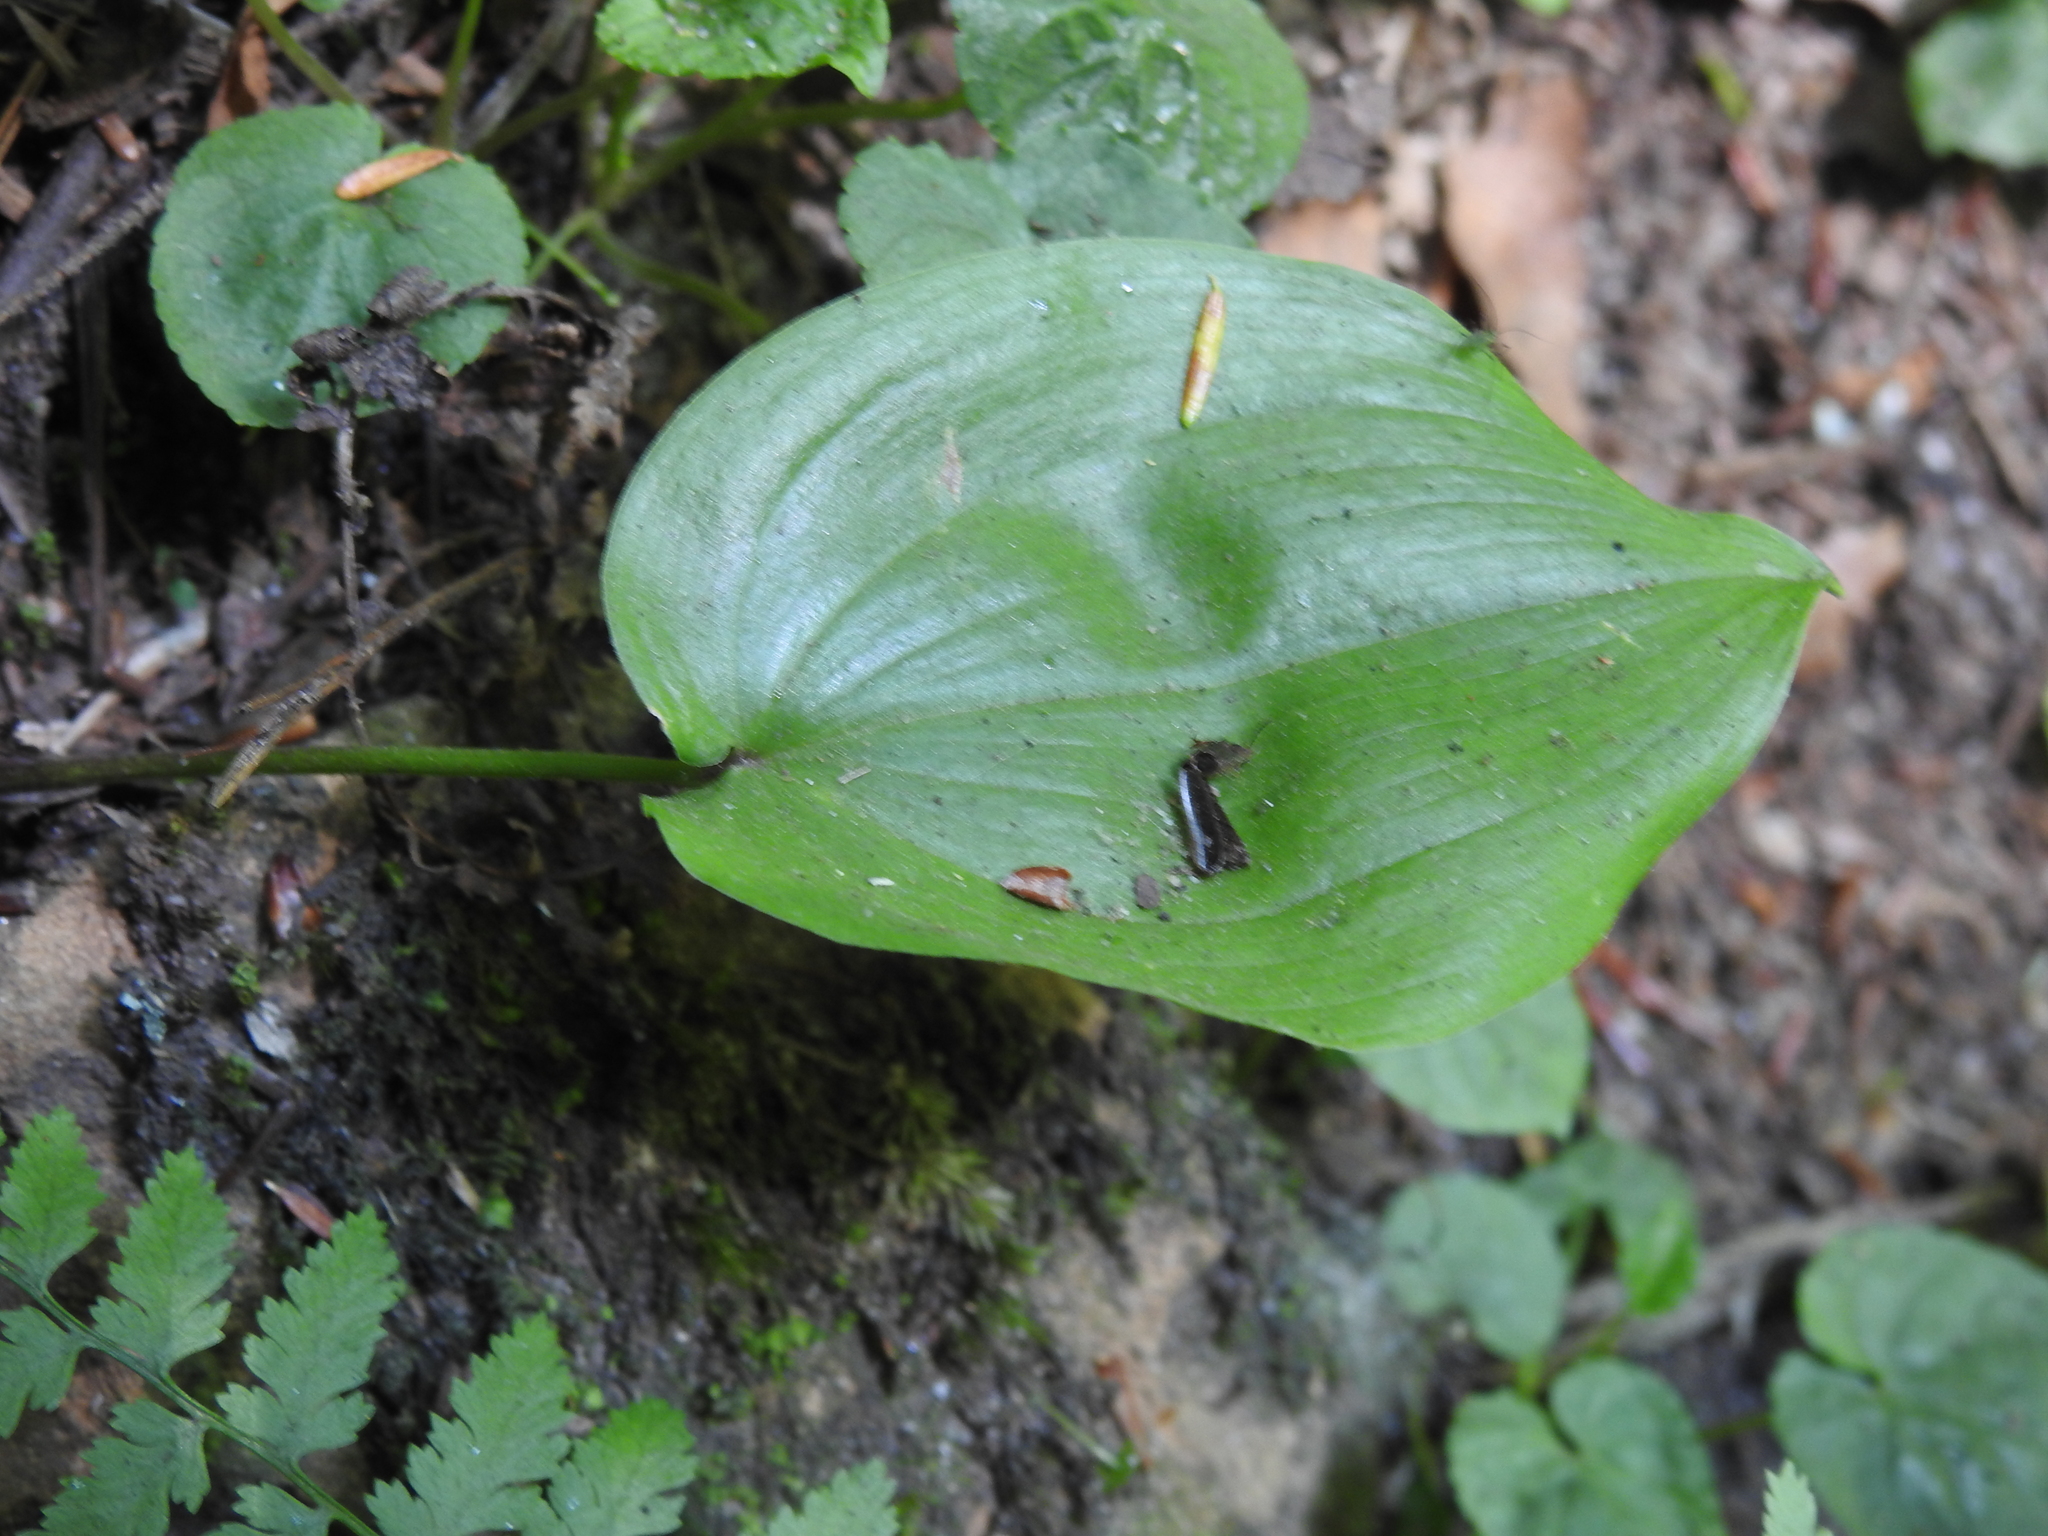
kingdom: Plantae
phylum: Tracheophyta
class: Liliopsida
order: Asparagales
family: Asparagaceae
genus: Maianthemum
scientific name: Maianthemum canadense
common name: False lily-of-the-valley
